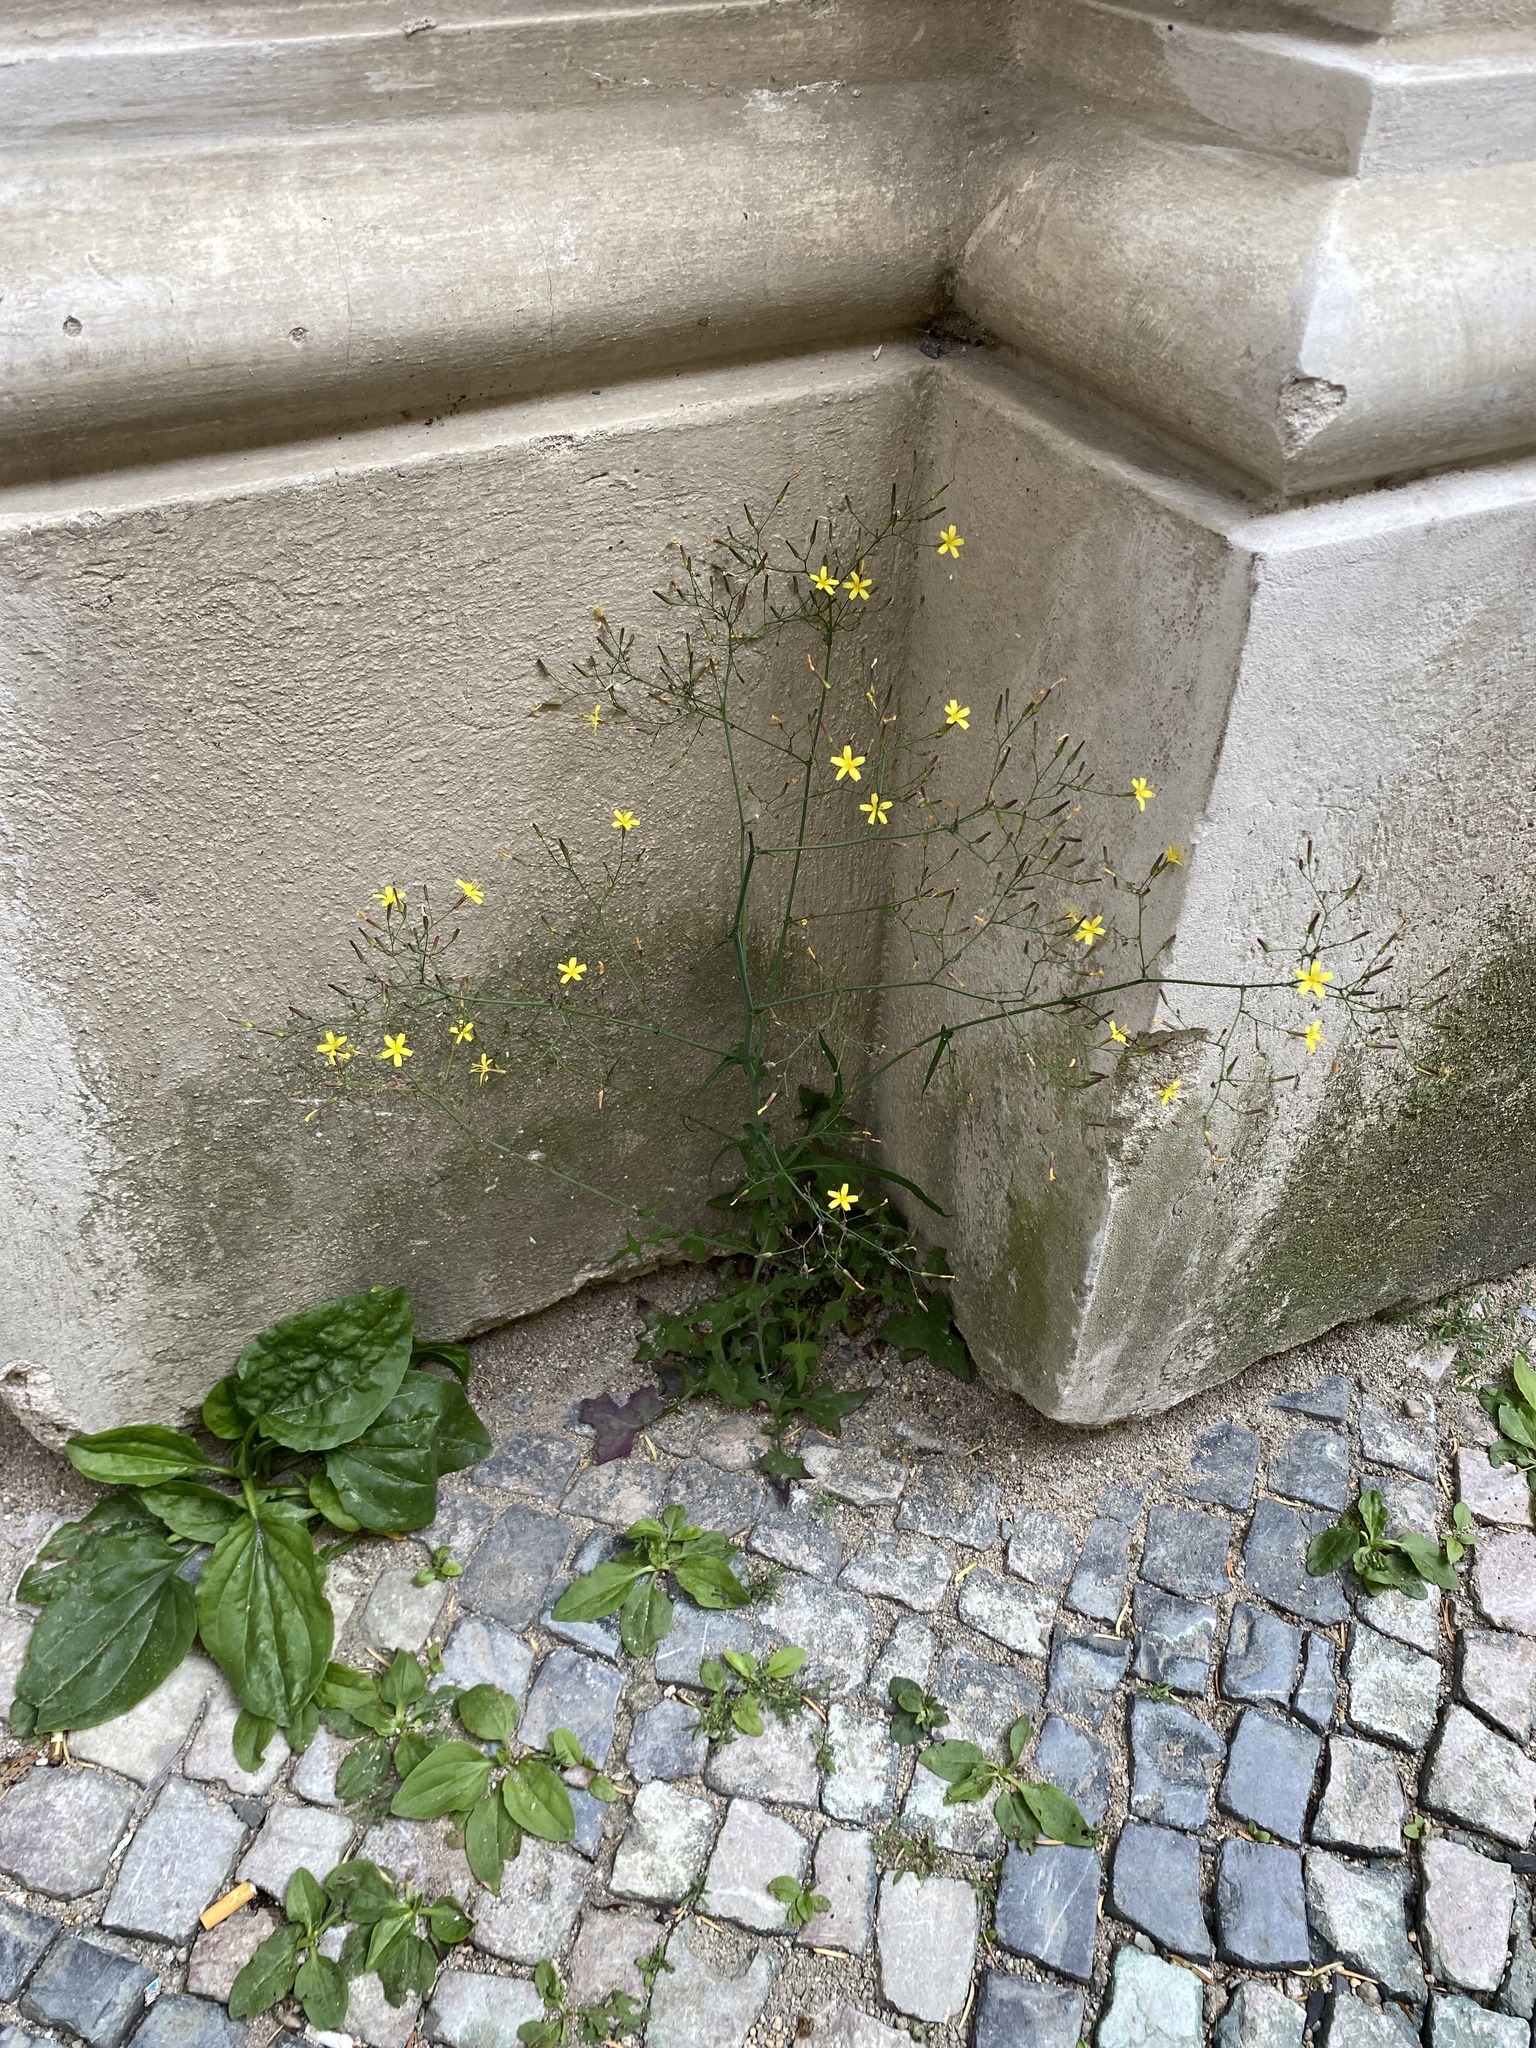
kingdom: Plantae
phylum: Tracheophyta
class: Magnoliopsida
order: Asterales
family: Asteraceae
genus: Mycelis
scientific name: Mycelis muralis
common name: Wall lettuce
